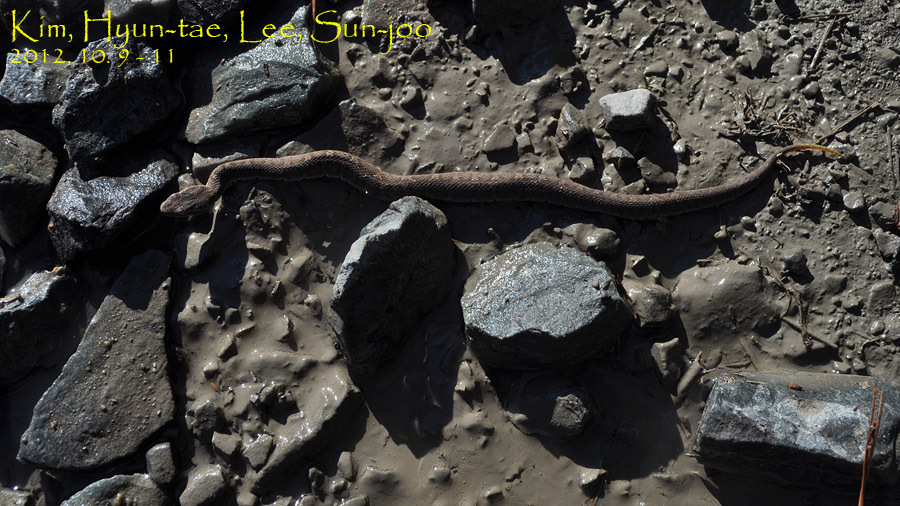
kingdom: Animalia
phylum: Chordata
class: Squamata
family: Viperidae
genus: Gloydius
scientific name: Gloydius ussuriensis
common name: Ussuri mamushi
